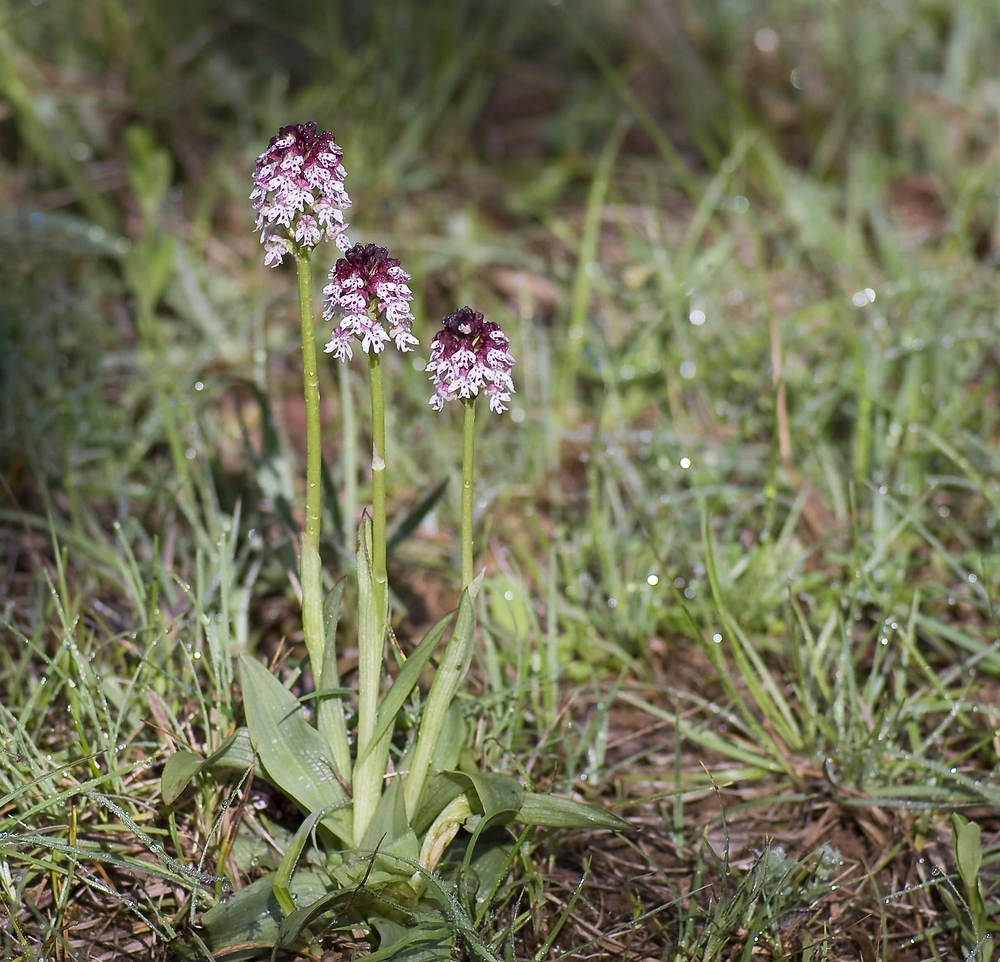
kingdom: Plantae
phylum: Tracheophyta
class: Liliopsida
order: Asparagales
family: Orchidaceae
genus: Neotinea
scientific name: Neotinea ustulata
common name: Burnt orchid
